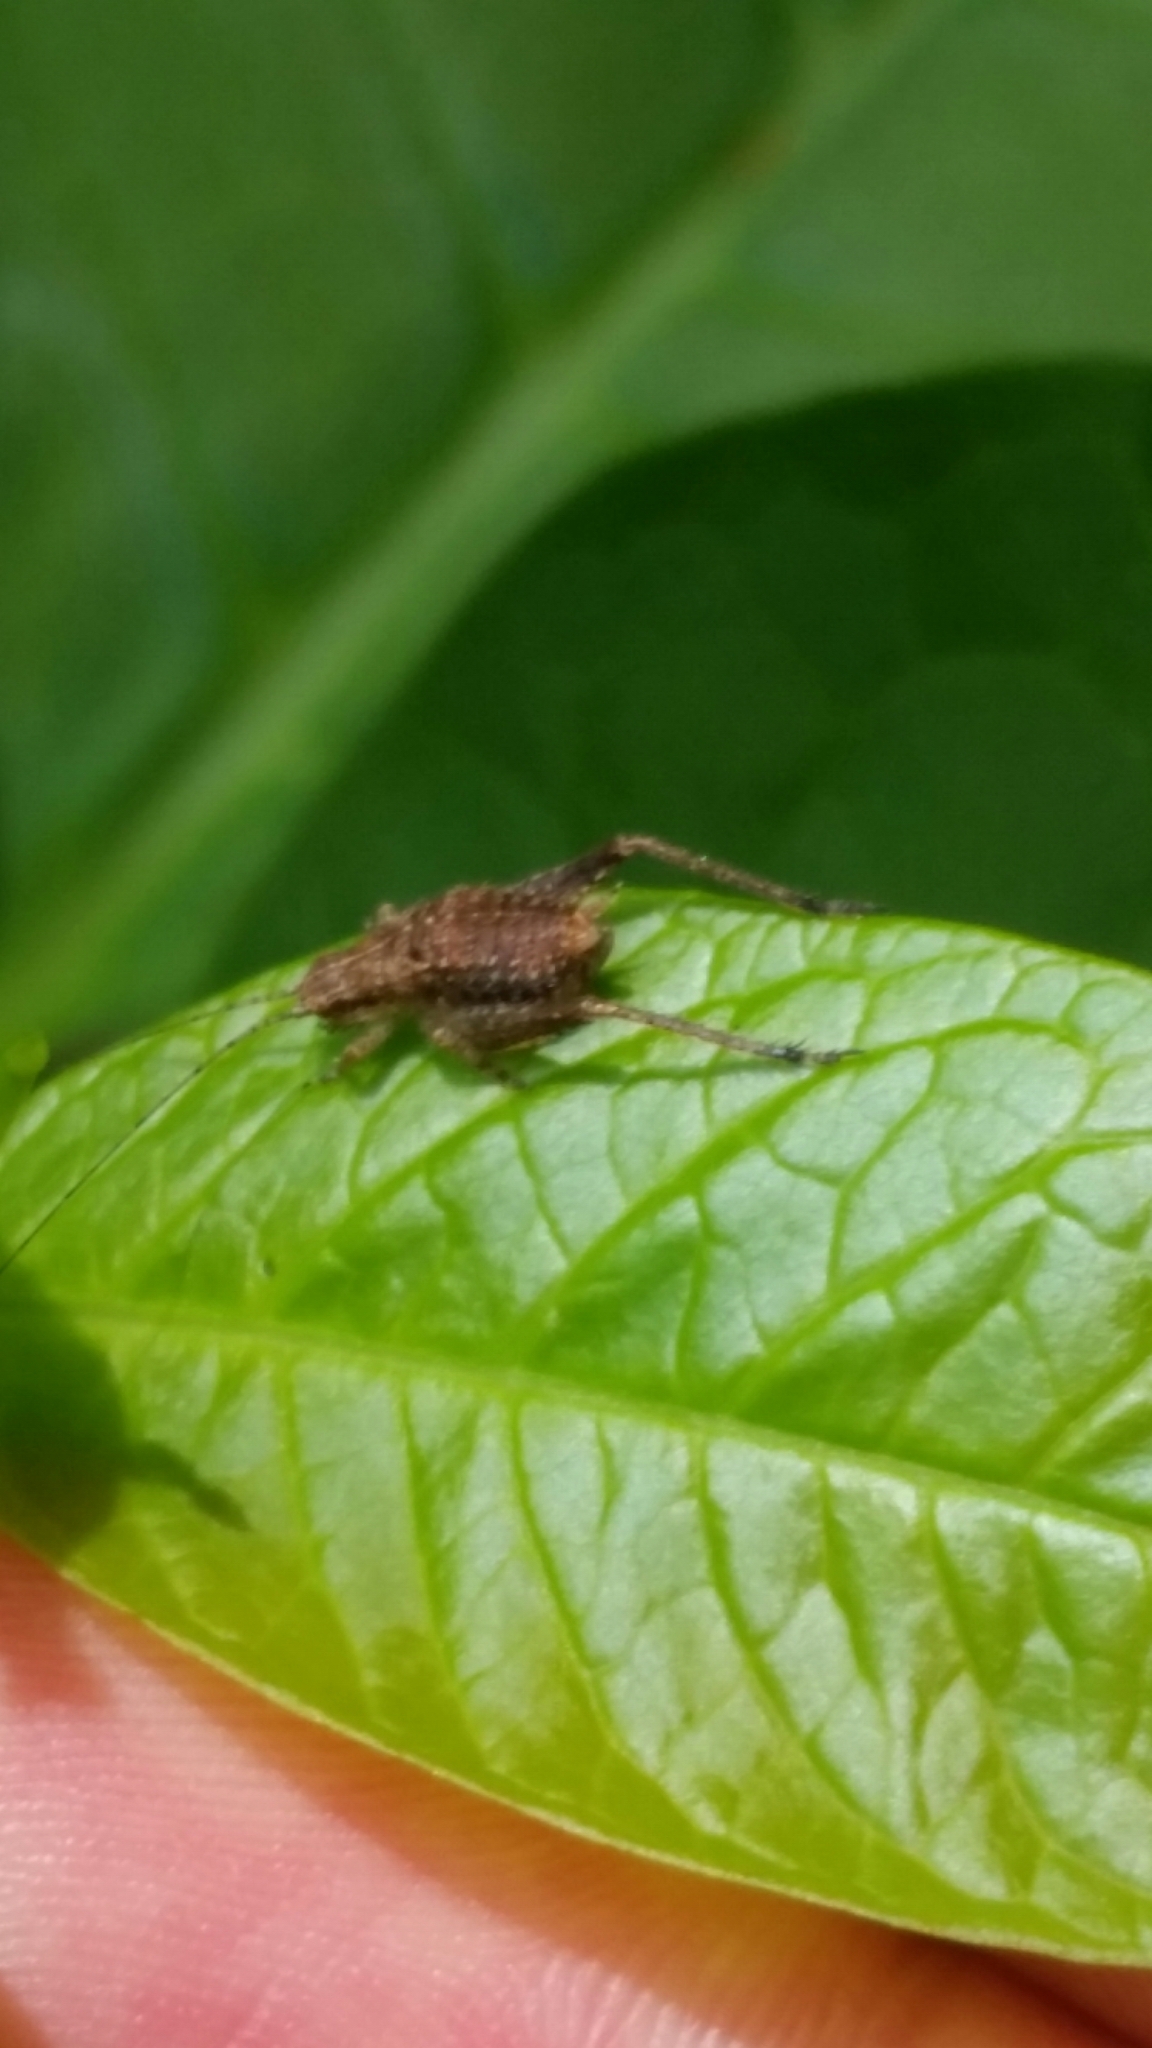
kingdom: Animalia
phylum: Arthropoda
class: Insecta
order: Orthoptera
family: Oecanthidae
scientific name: Oecanthidae
